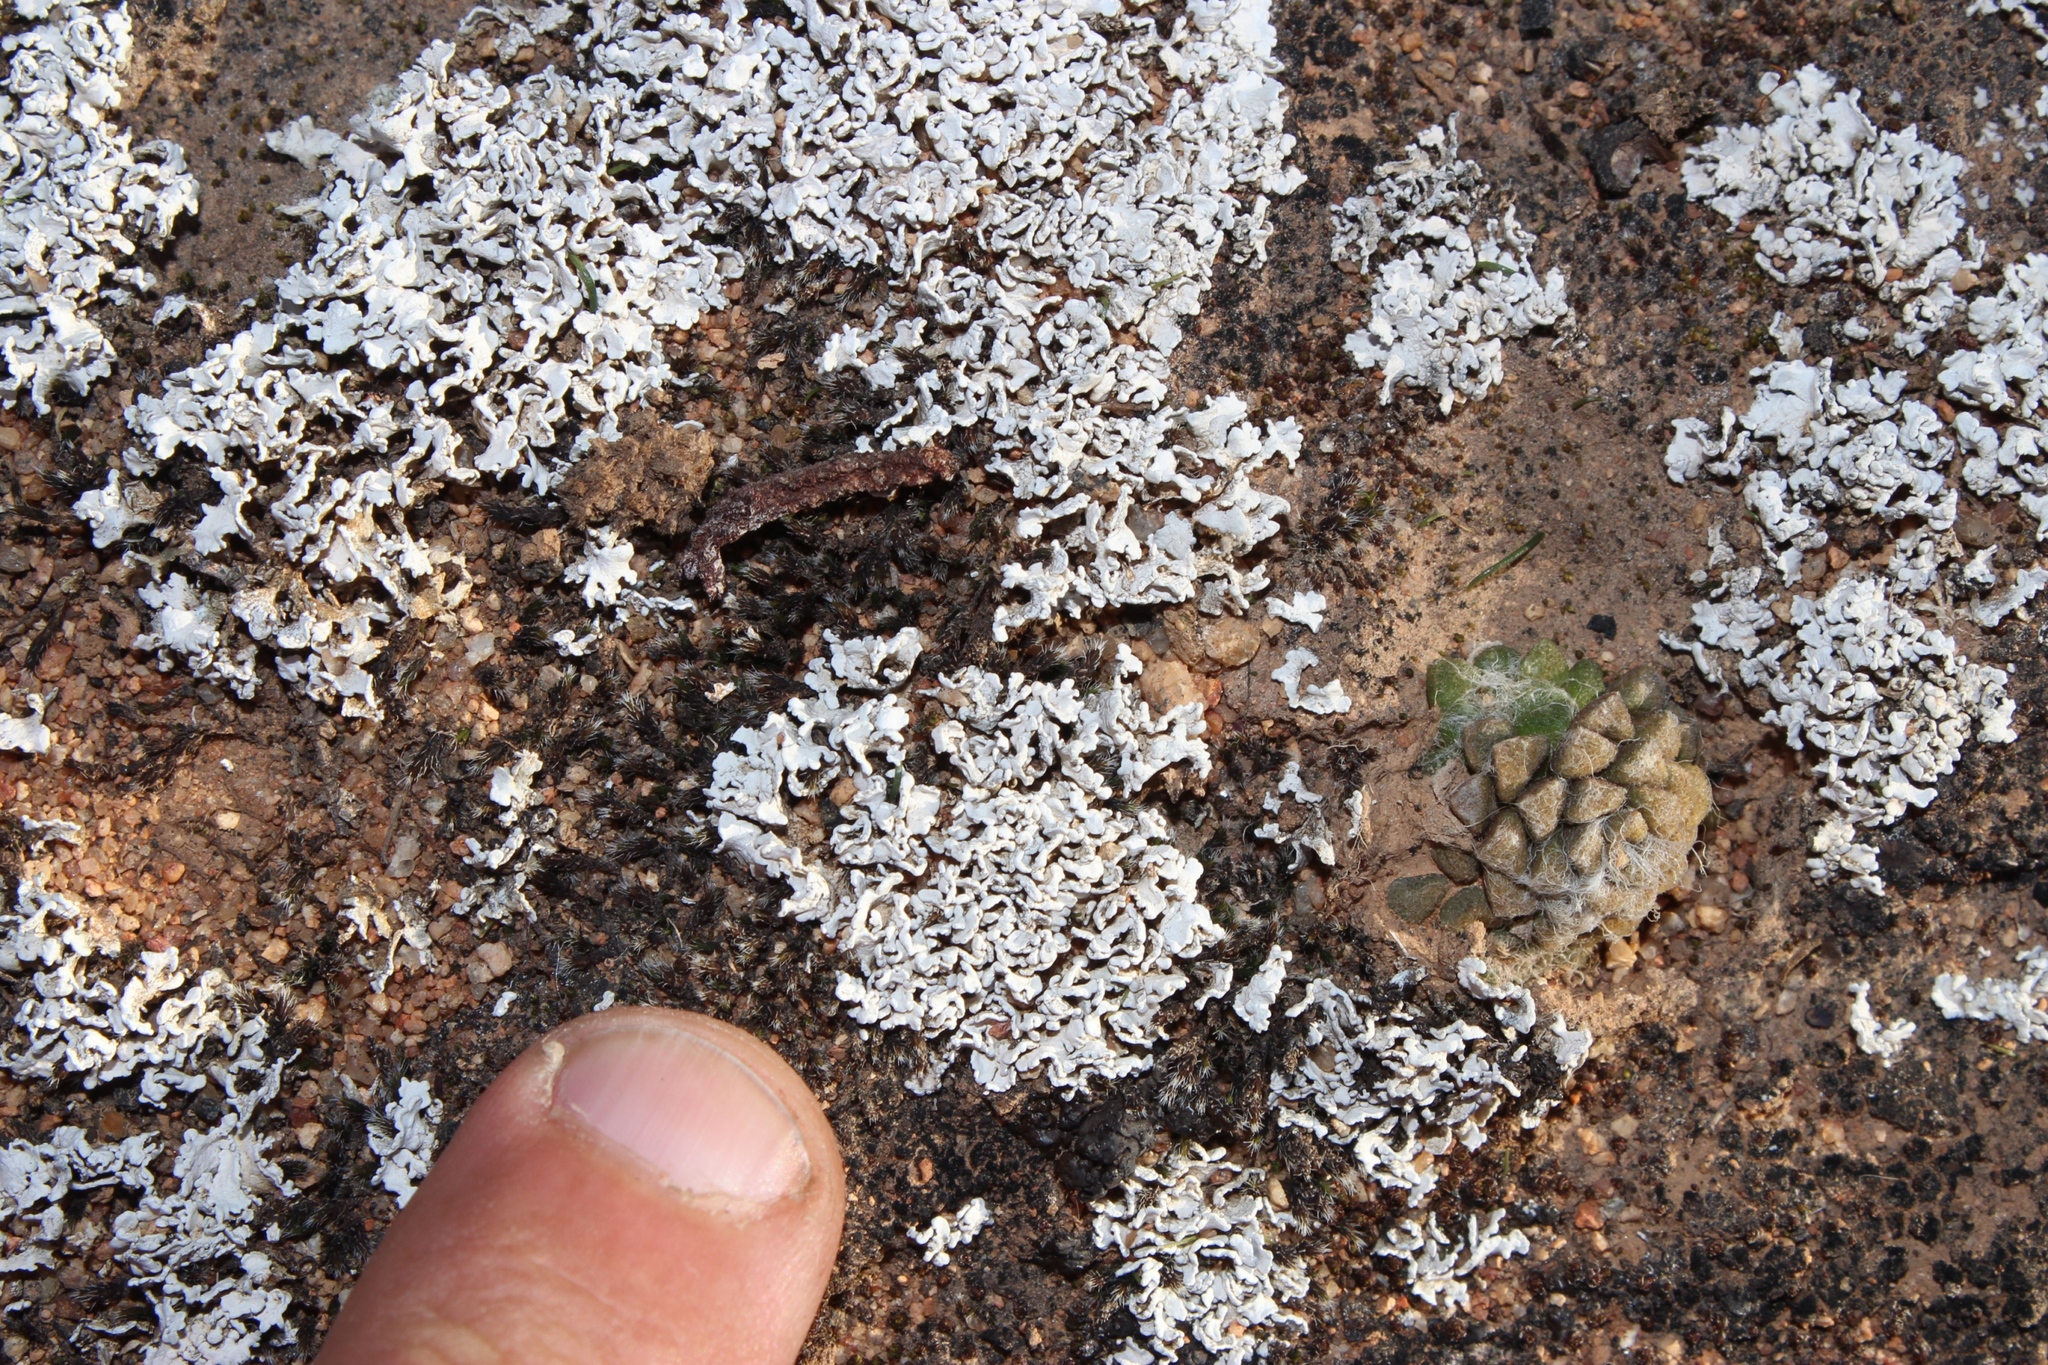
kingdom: Fungi
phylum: Ascomycota
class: Lecanoromycetes
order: Pertusariales
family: Icmadophilaceae
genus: Siphula
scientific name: Siphula decumbens
